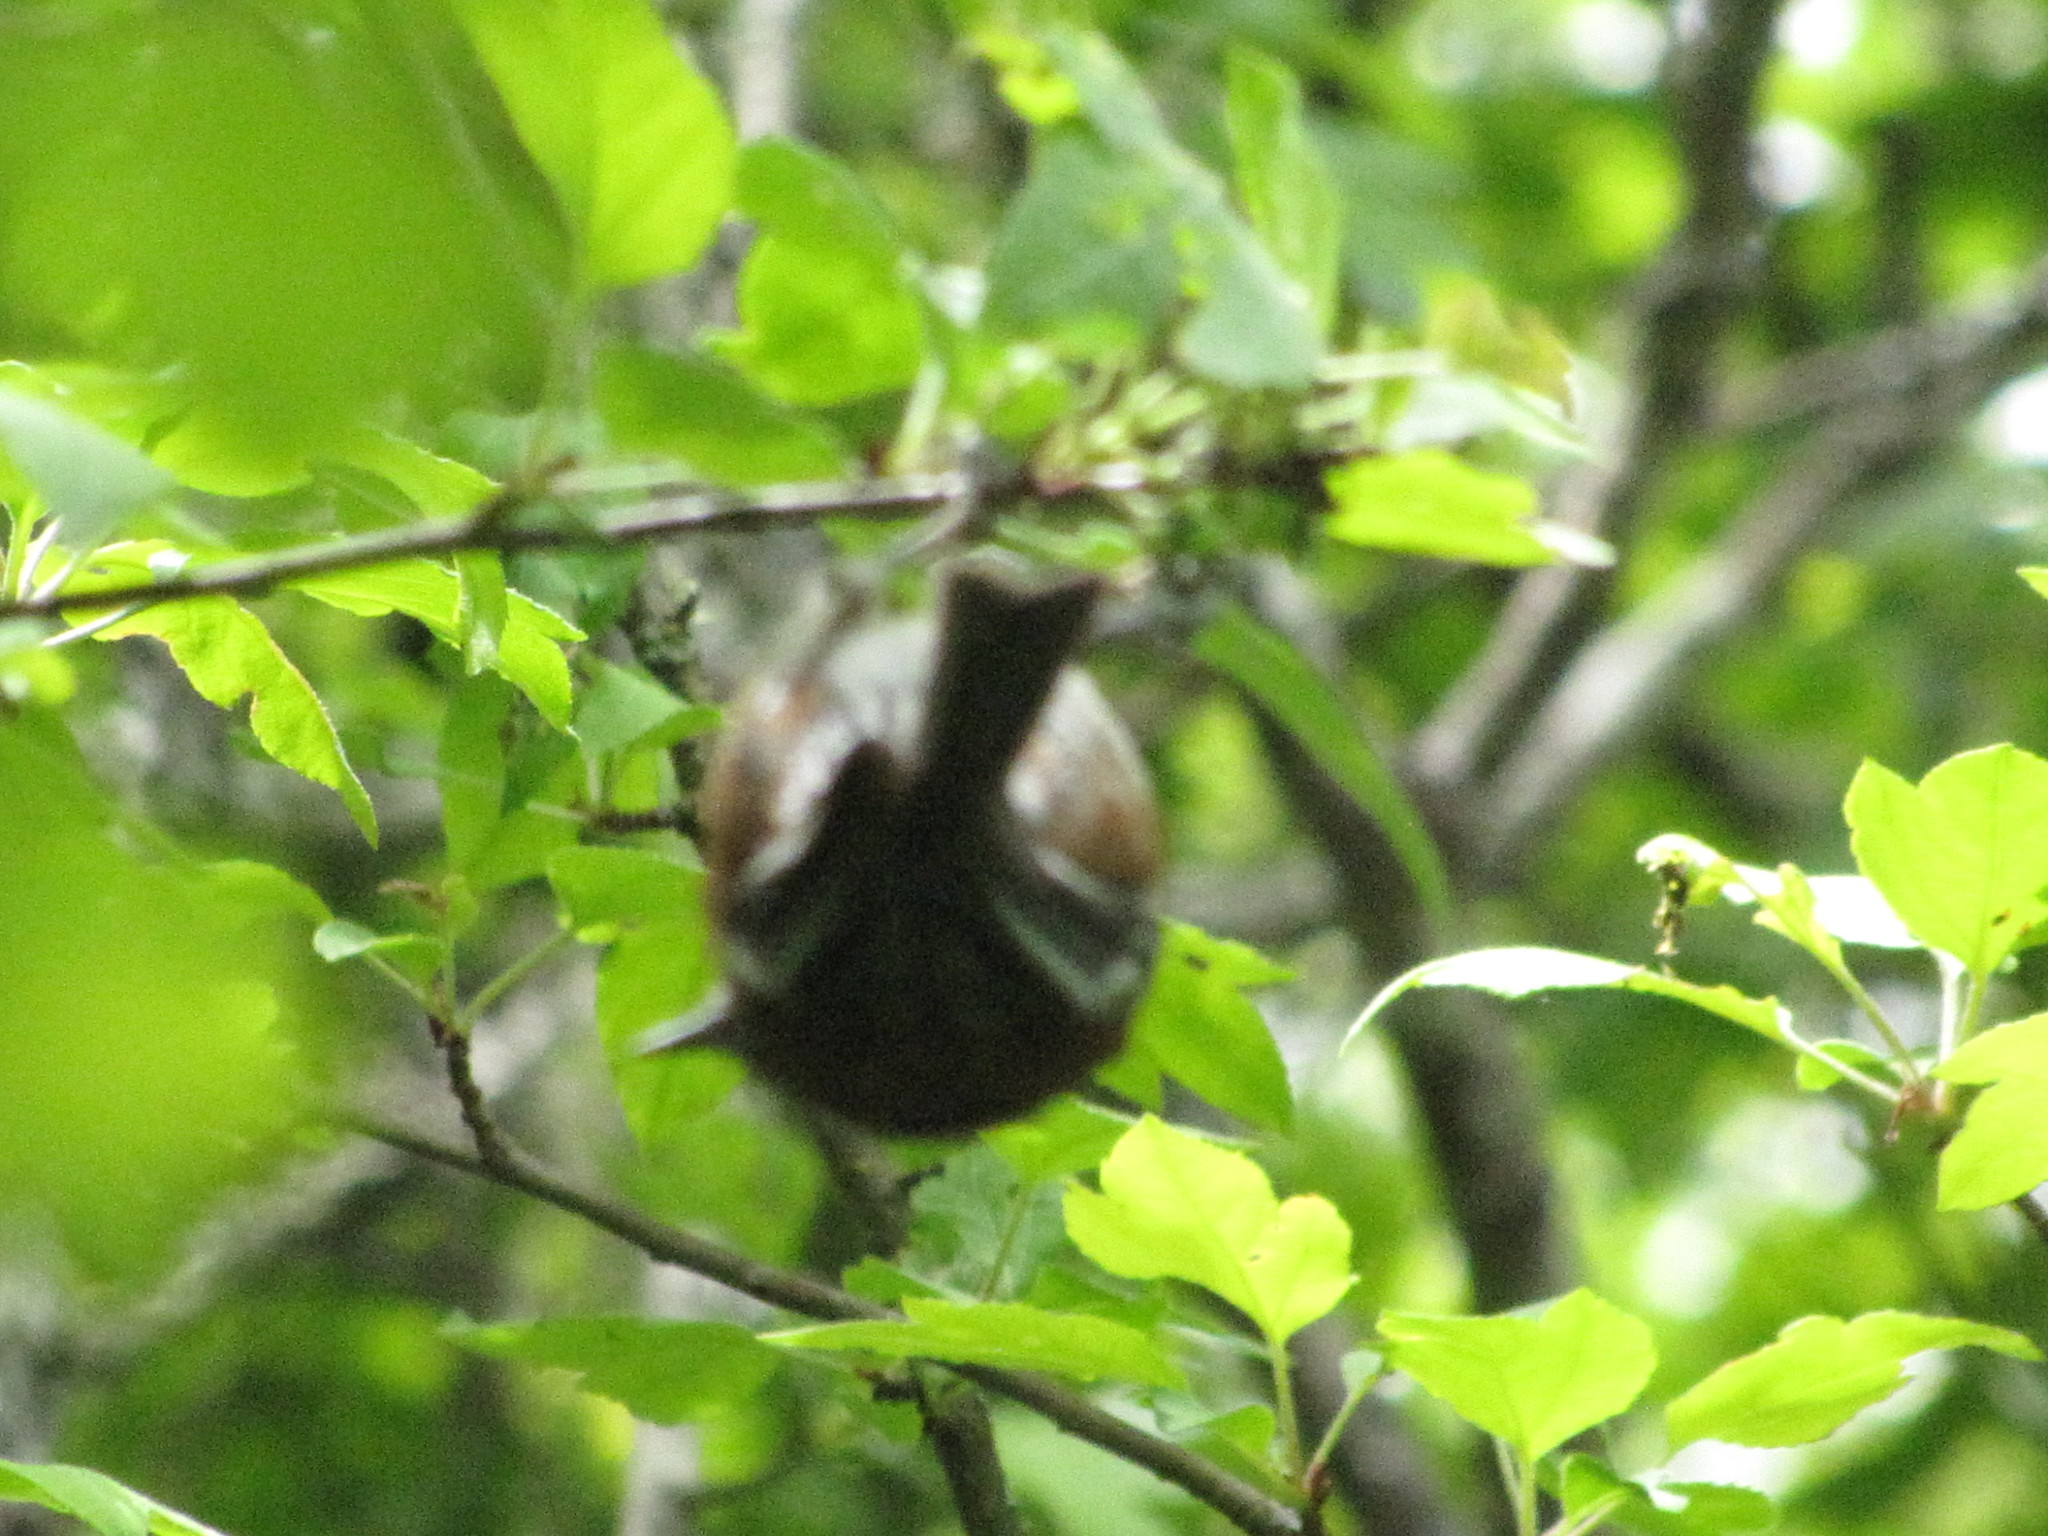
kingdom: Animalia
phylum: Chordata
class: Aves
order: Passeriformes
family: Paridae
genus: Poecile
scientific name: Poecile rufescens
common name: Chestnut-backed chickadee
